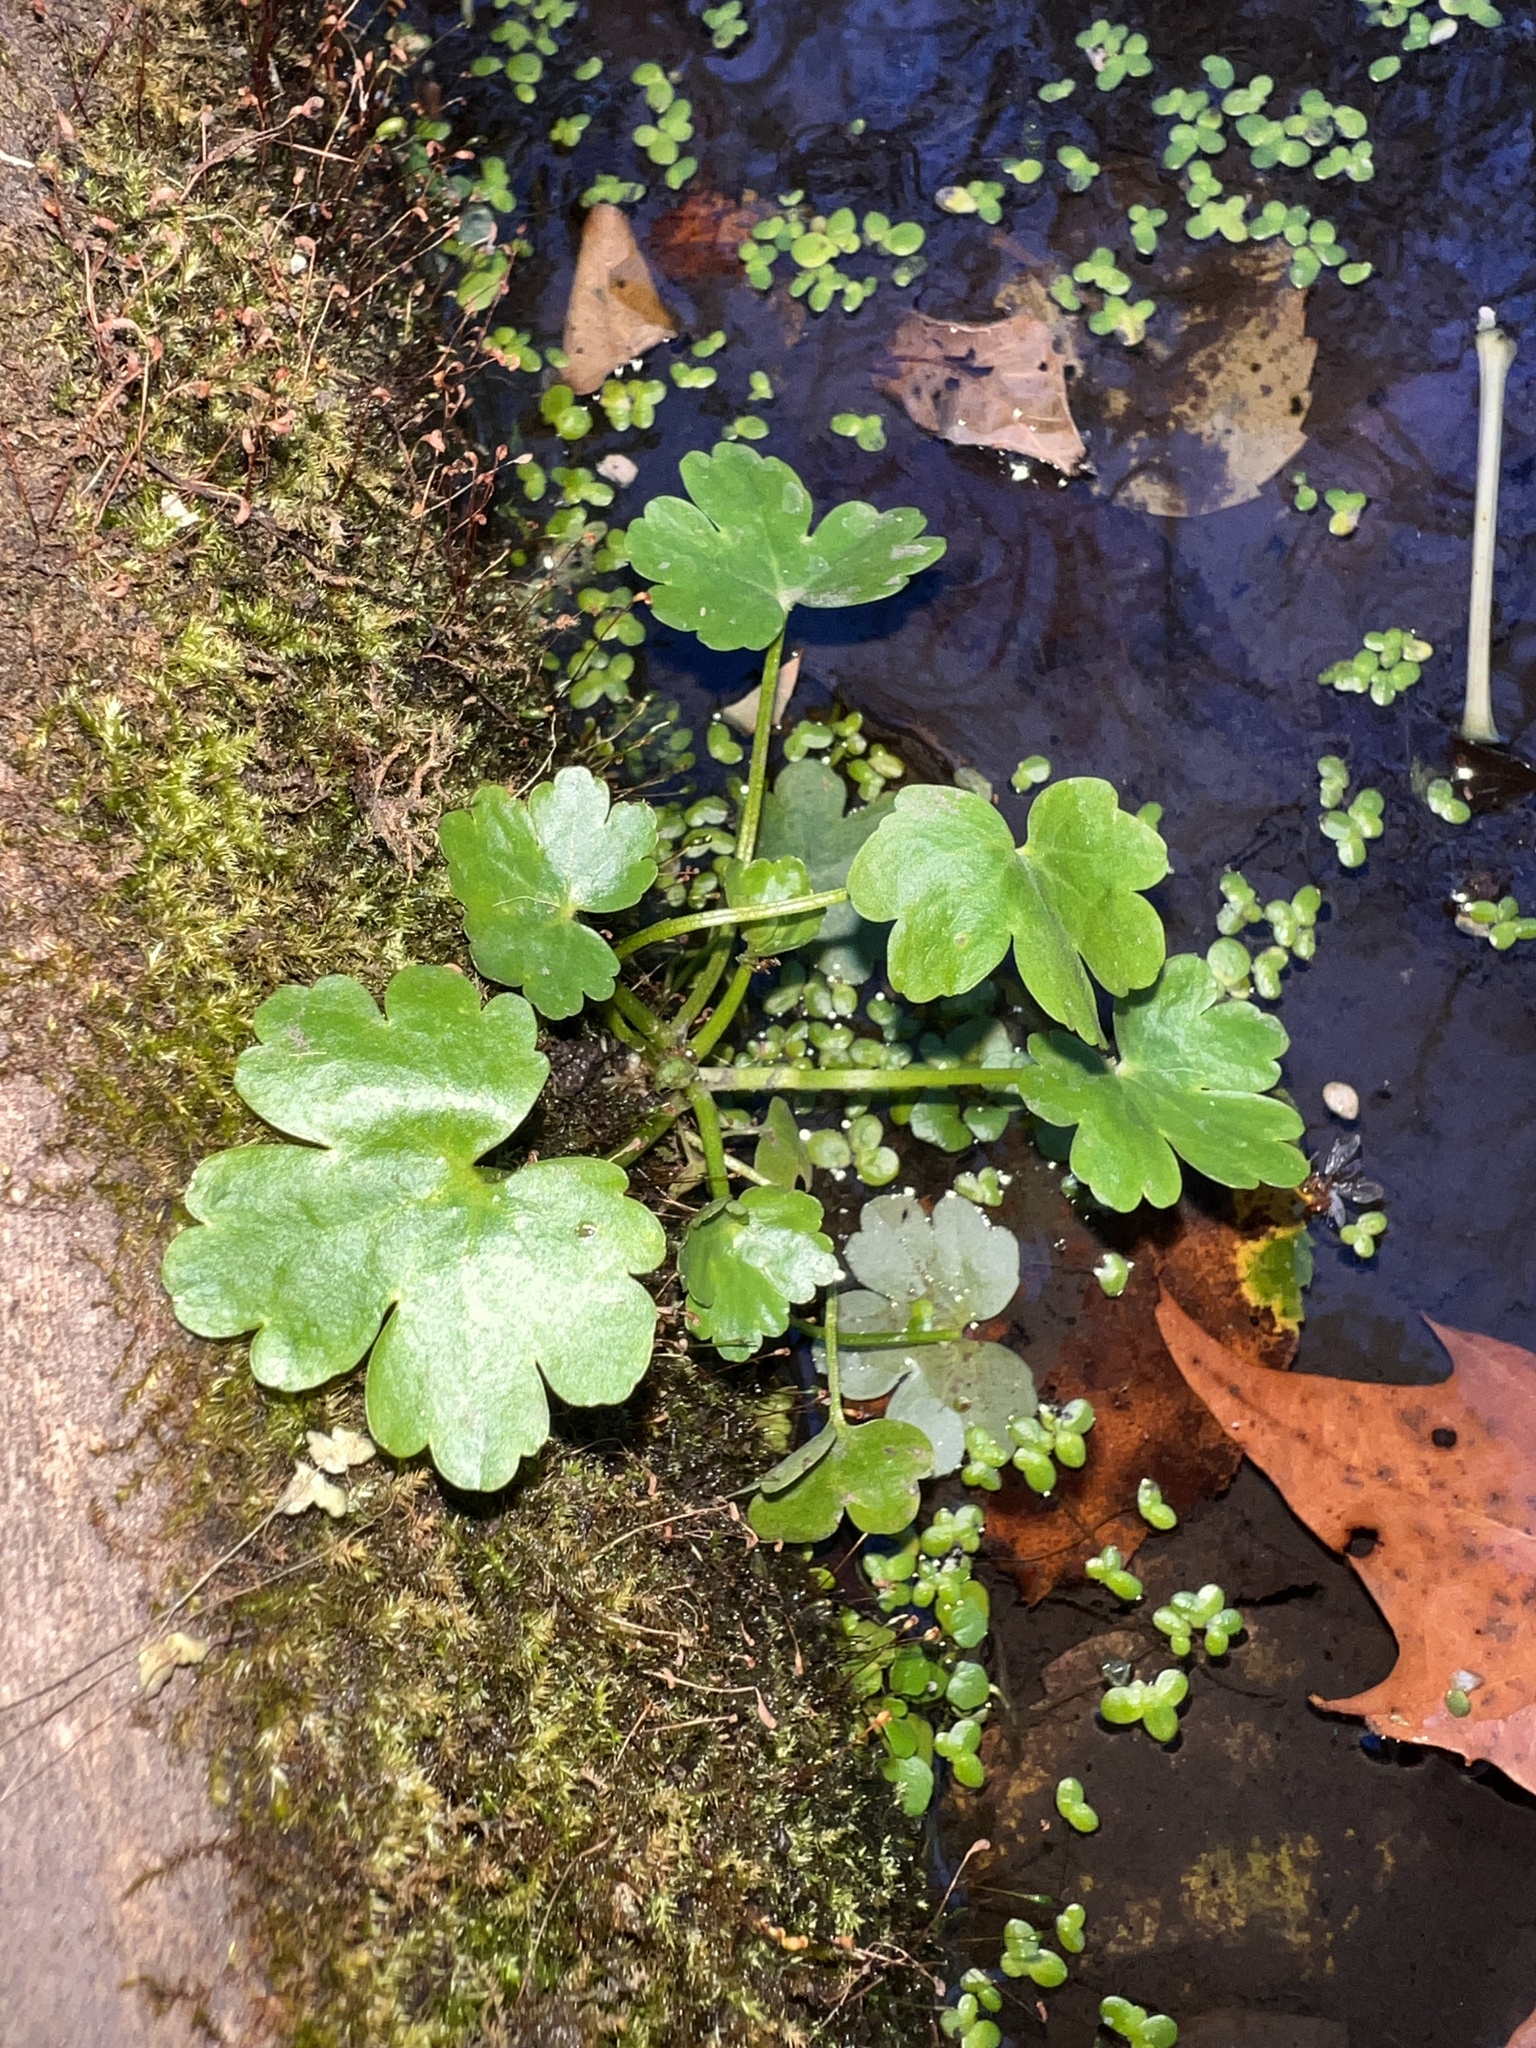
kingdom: Plantae
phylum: Tracheophyta
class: Magnoliopsida
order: Ranunculales
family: Ranunculaceae
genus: Ranunculus
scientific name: Ranunculus sceleratus
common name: Celery-leaved buttercup
